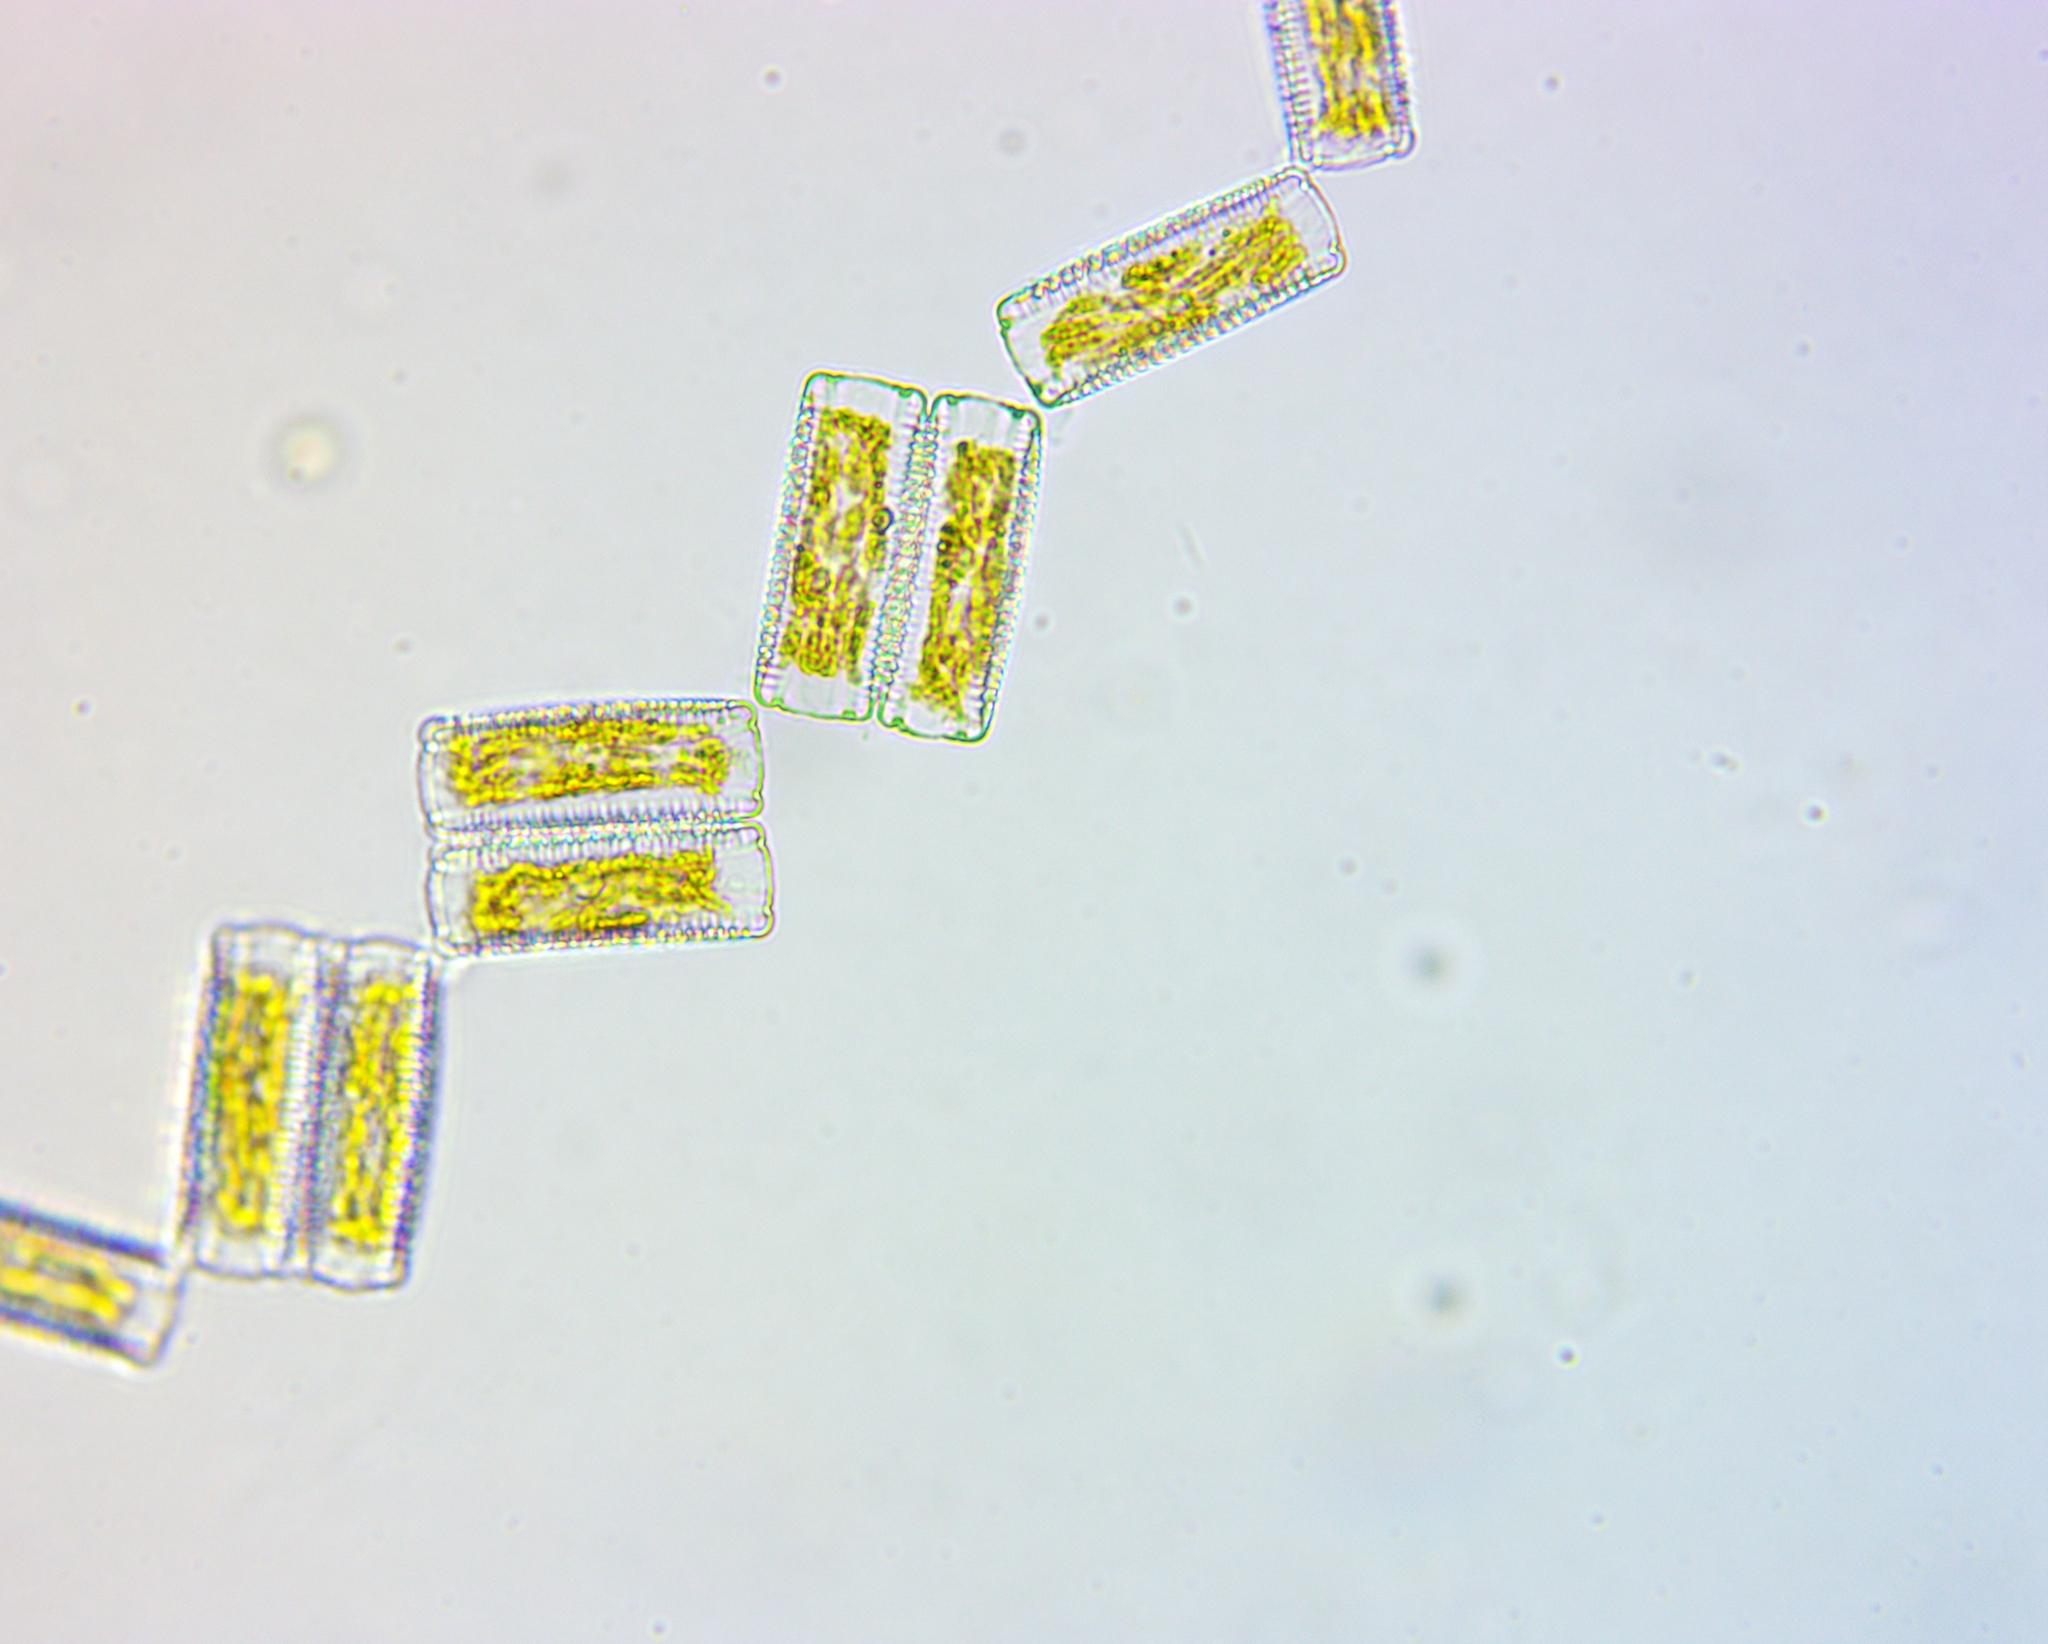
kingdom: Chromista
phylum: Ochrophyta
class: Bacillariophyceae
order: Fragilariales
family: Fragilariaceae
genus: Diatoma
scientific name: Diatoma vulgaris
